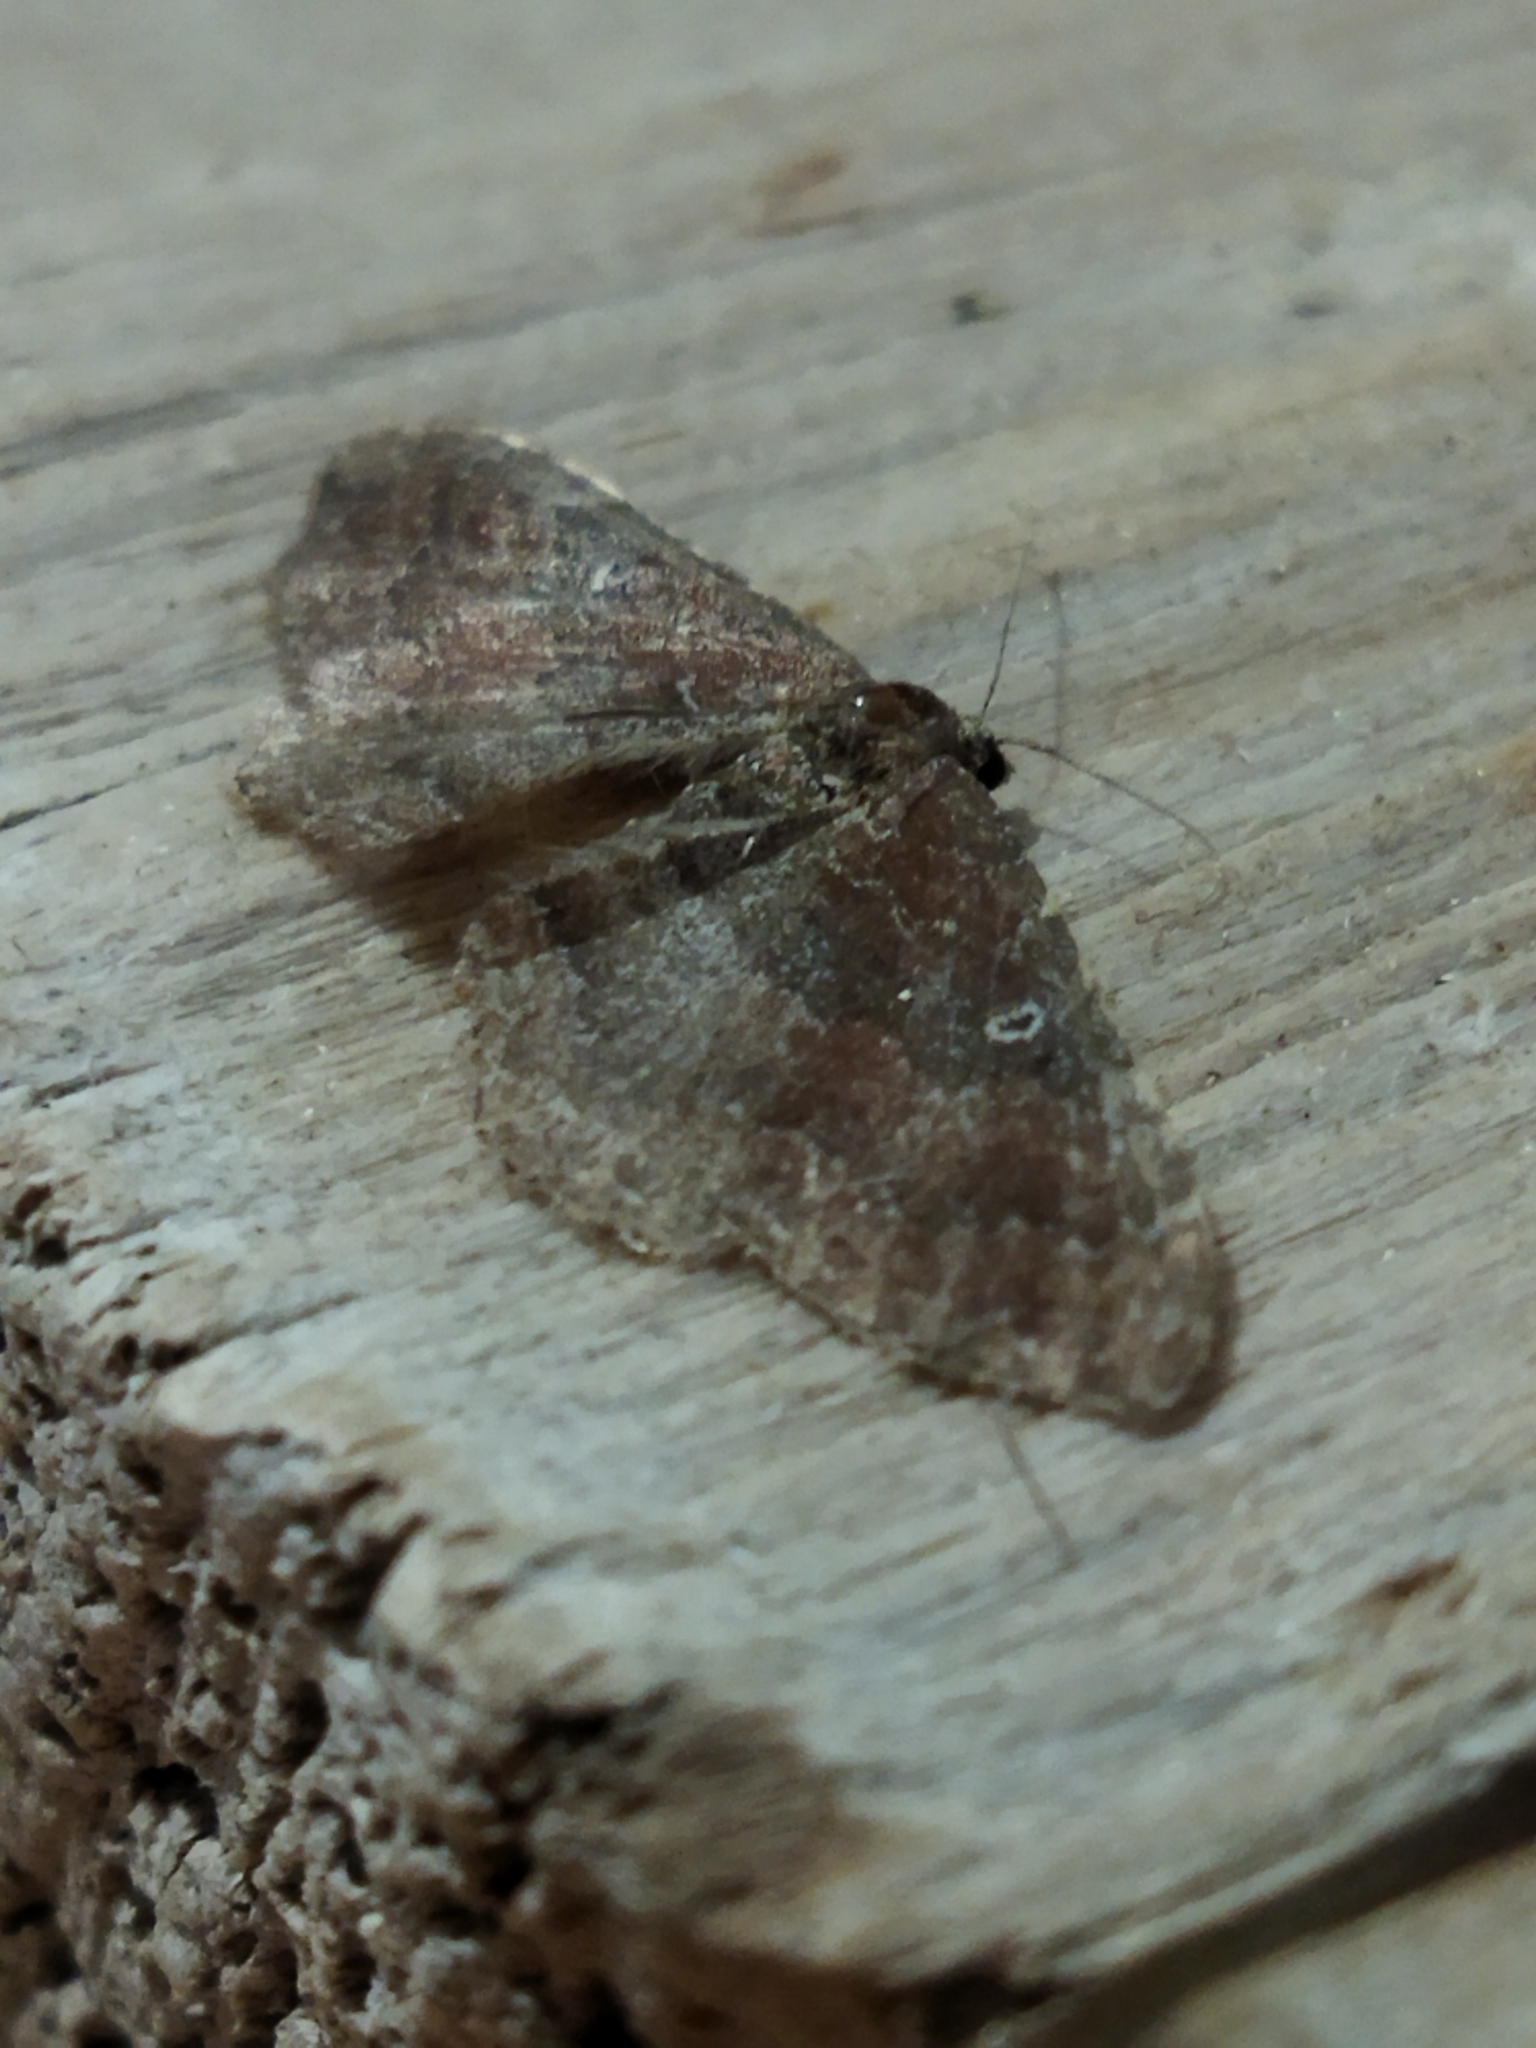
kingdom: Animalia
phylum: Arthropoda
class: Insecta
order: Lepidoptera
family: Geometridae
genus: Orthonama
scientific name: Orthonama obstipata
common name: The gem
